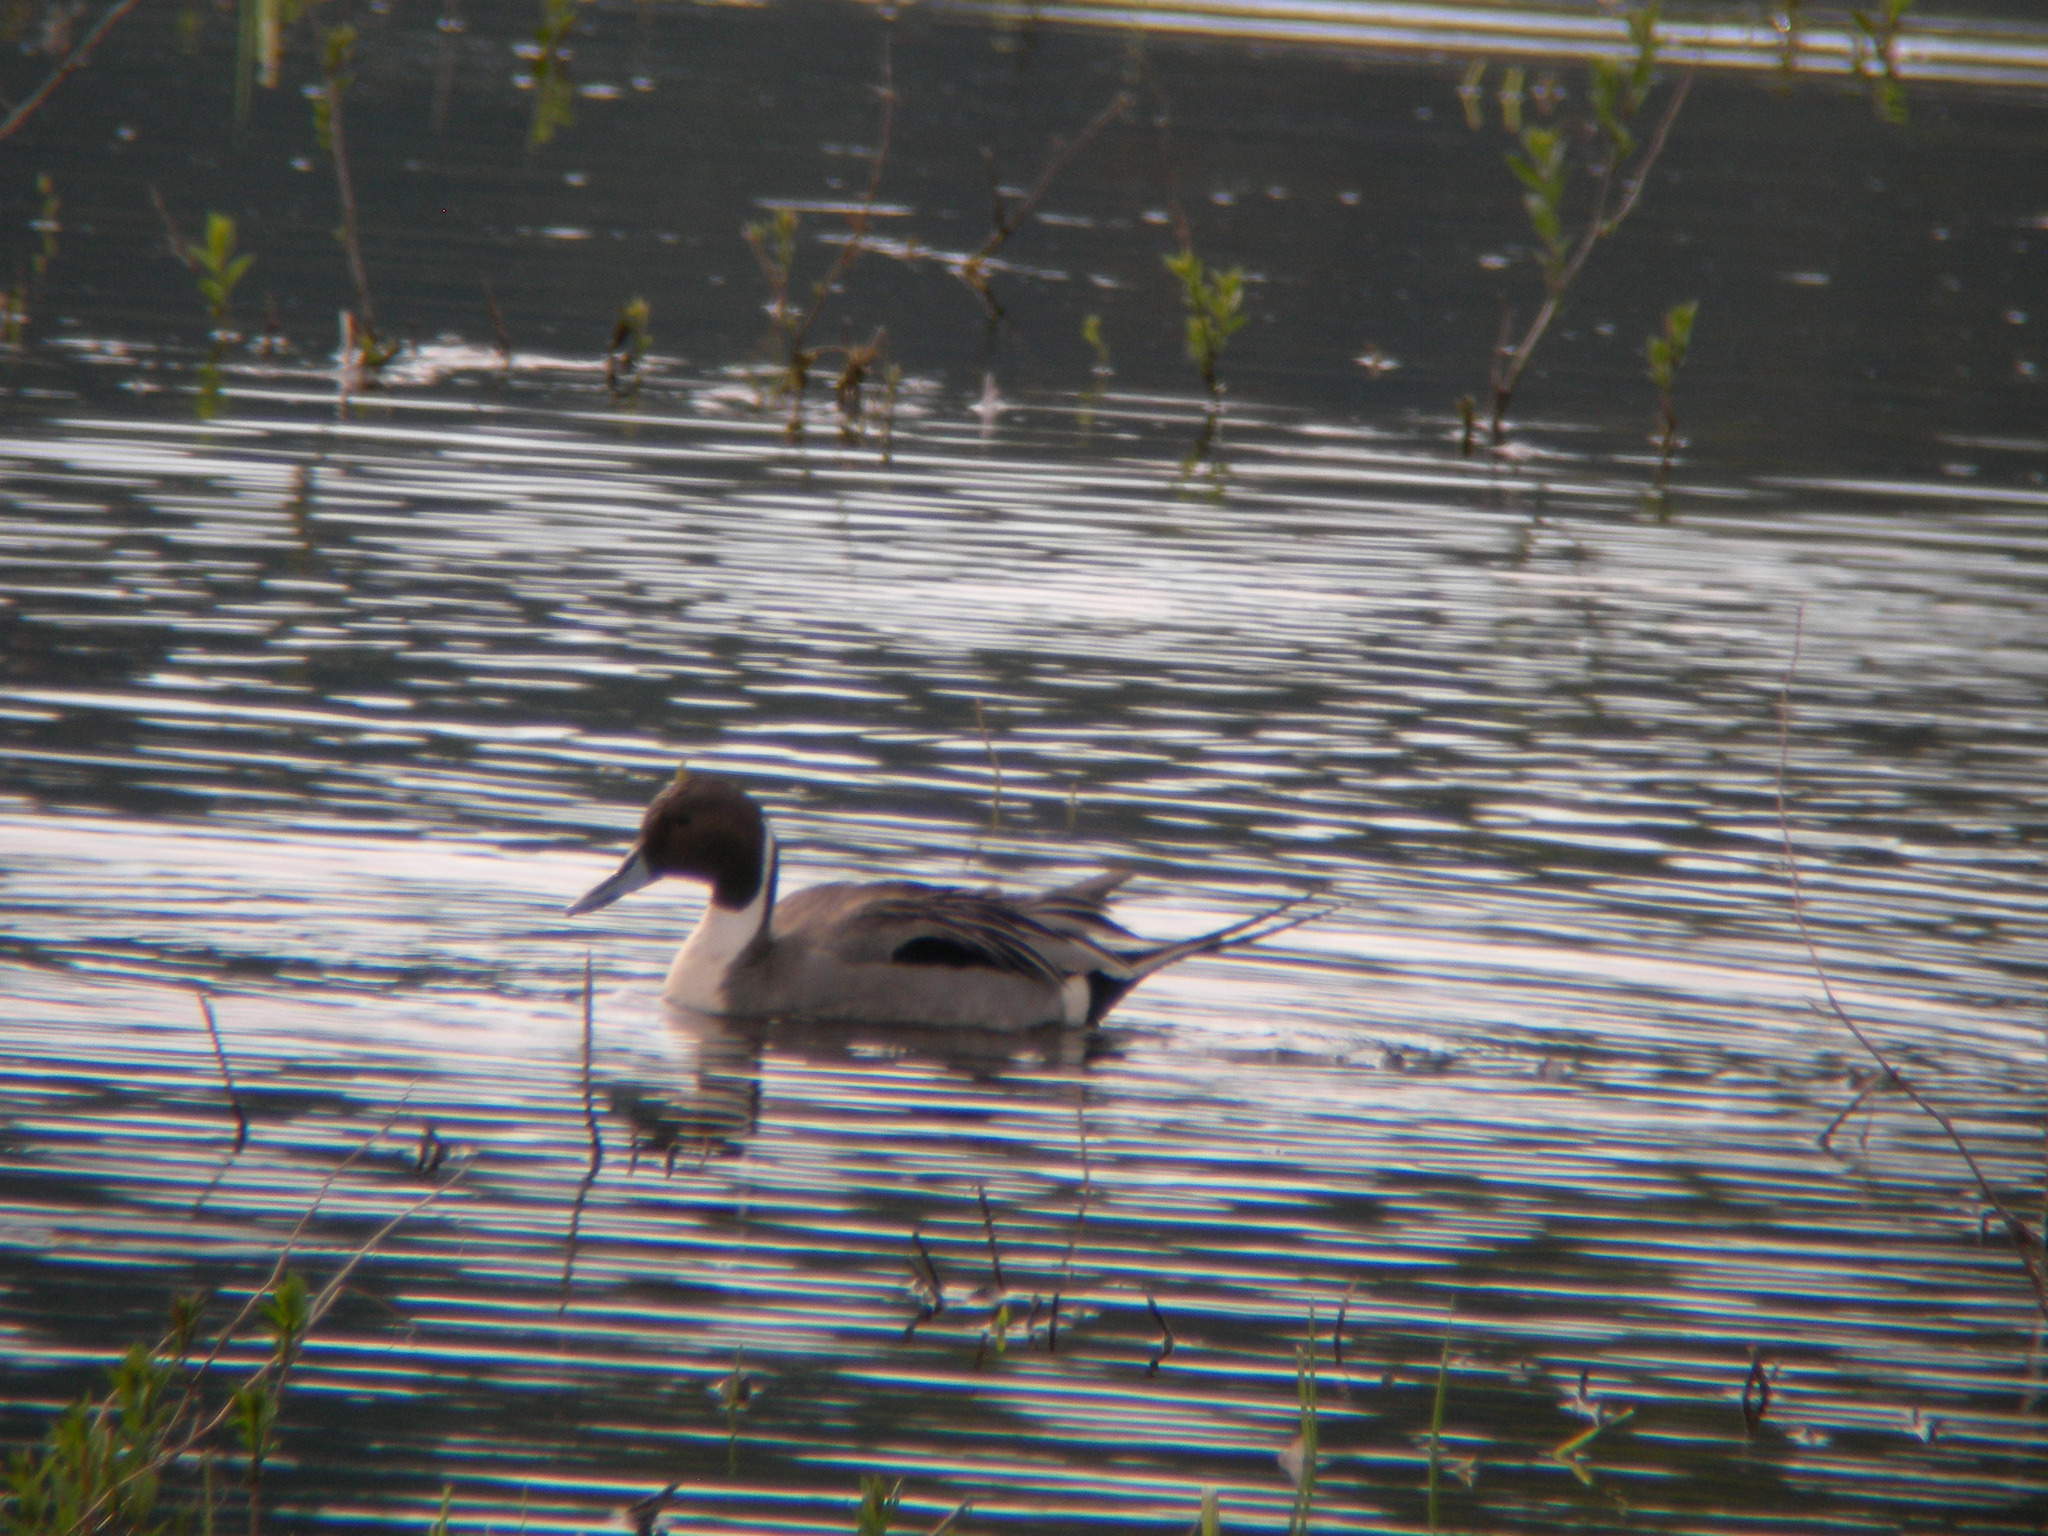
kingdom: Animalia
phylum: Chordata
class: Aves
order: Anseriformes
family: Anatidae
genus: Anas
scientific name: Anas acuta
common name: Northern pintail
